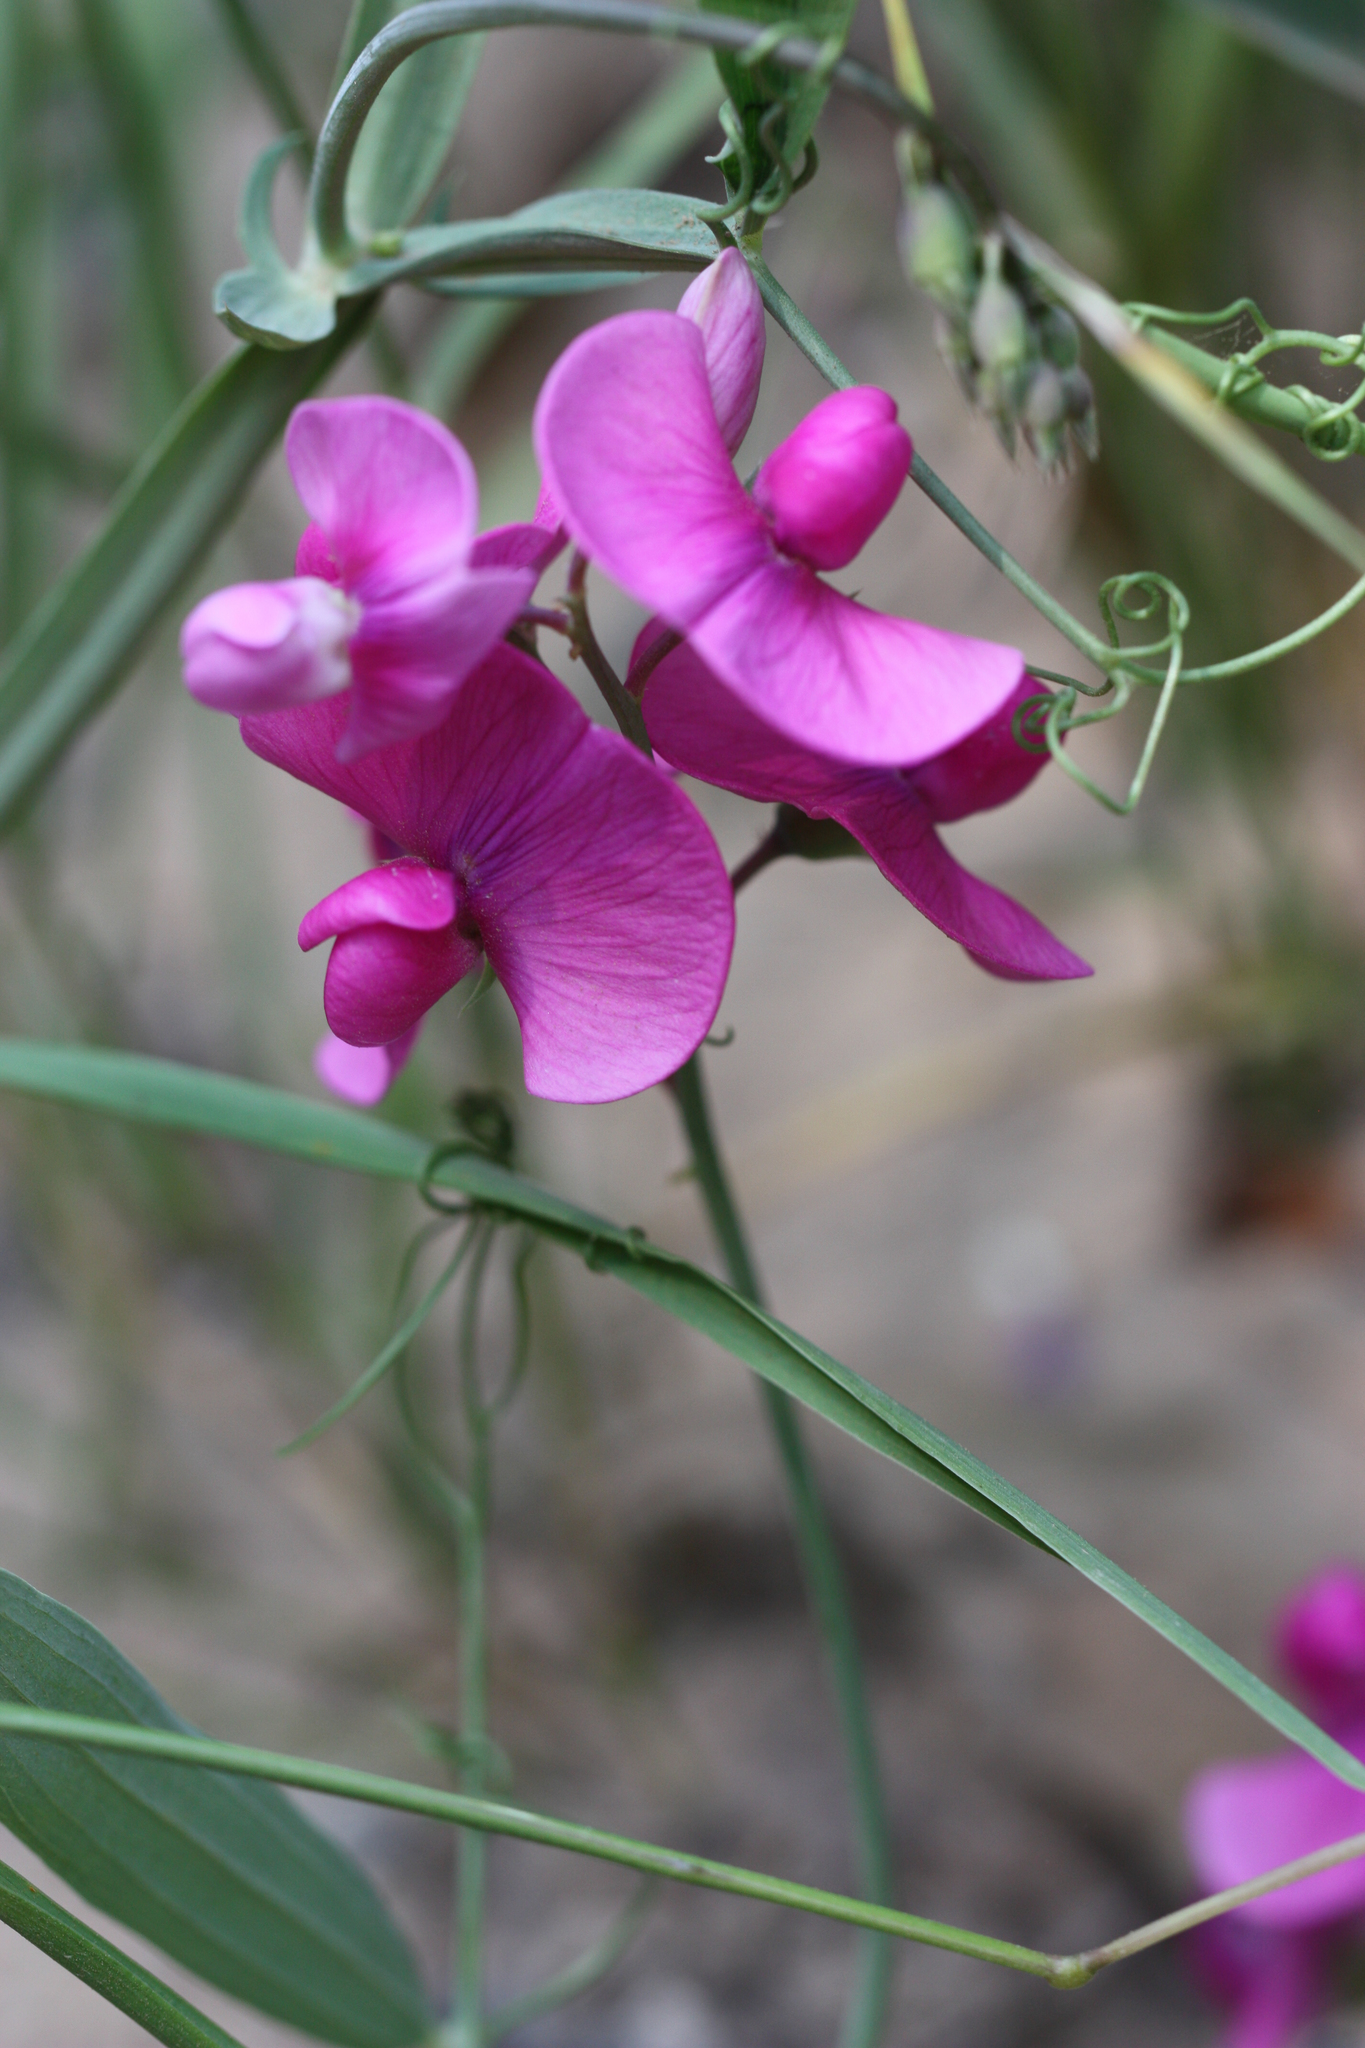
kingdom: Plantae
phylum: Tracheophyta
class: Magnoliopsida
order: Fabales
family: Fabaceae
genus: Lathyrus
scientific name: Lathyrus latifolius
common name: Perennial pea
